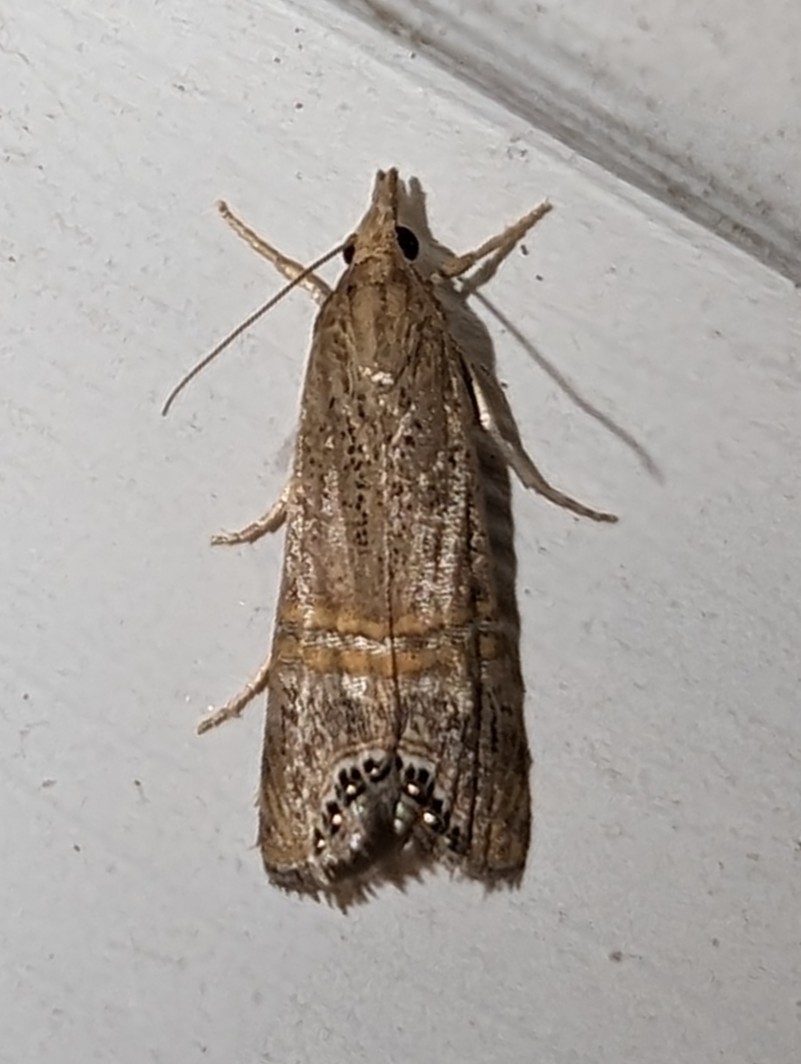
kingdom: Animalia
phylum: Arthropoda
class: Insecta
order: Lepidoptera
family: Crambidae
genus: Euchromius
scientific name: Euchromius ocellea
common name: Necklace veneer moth
